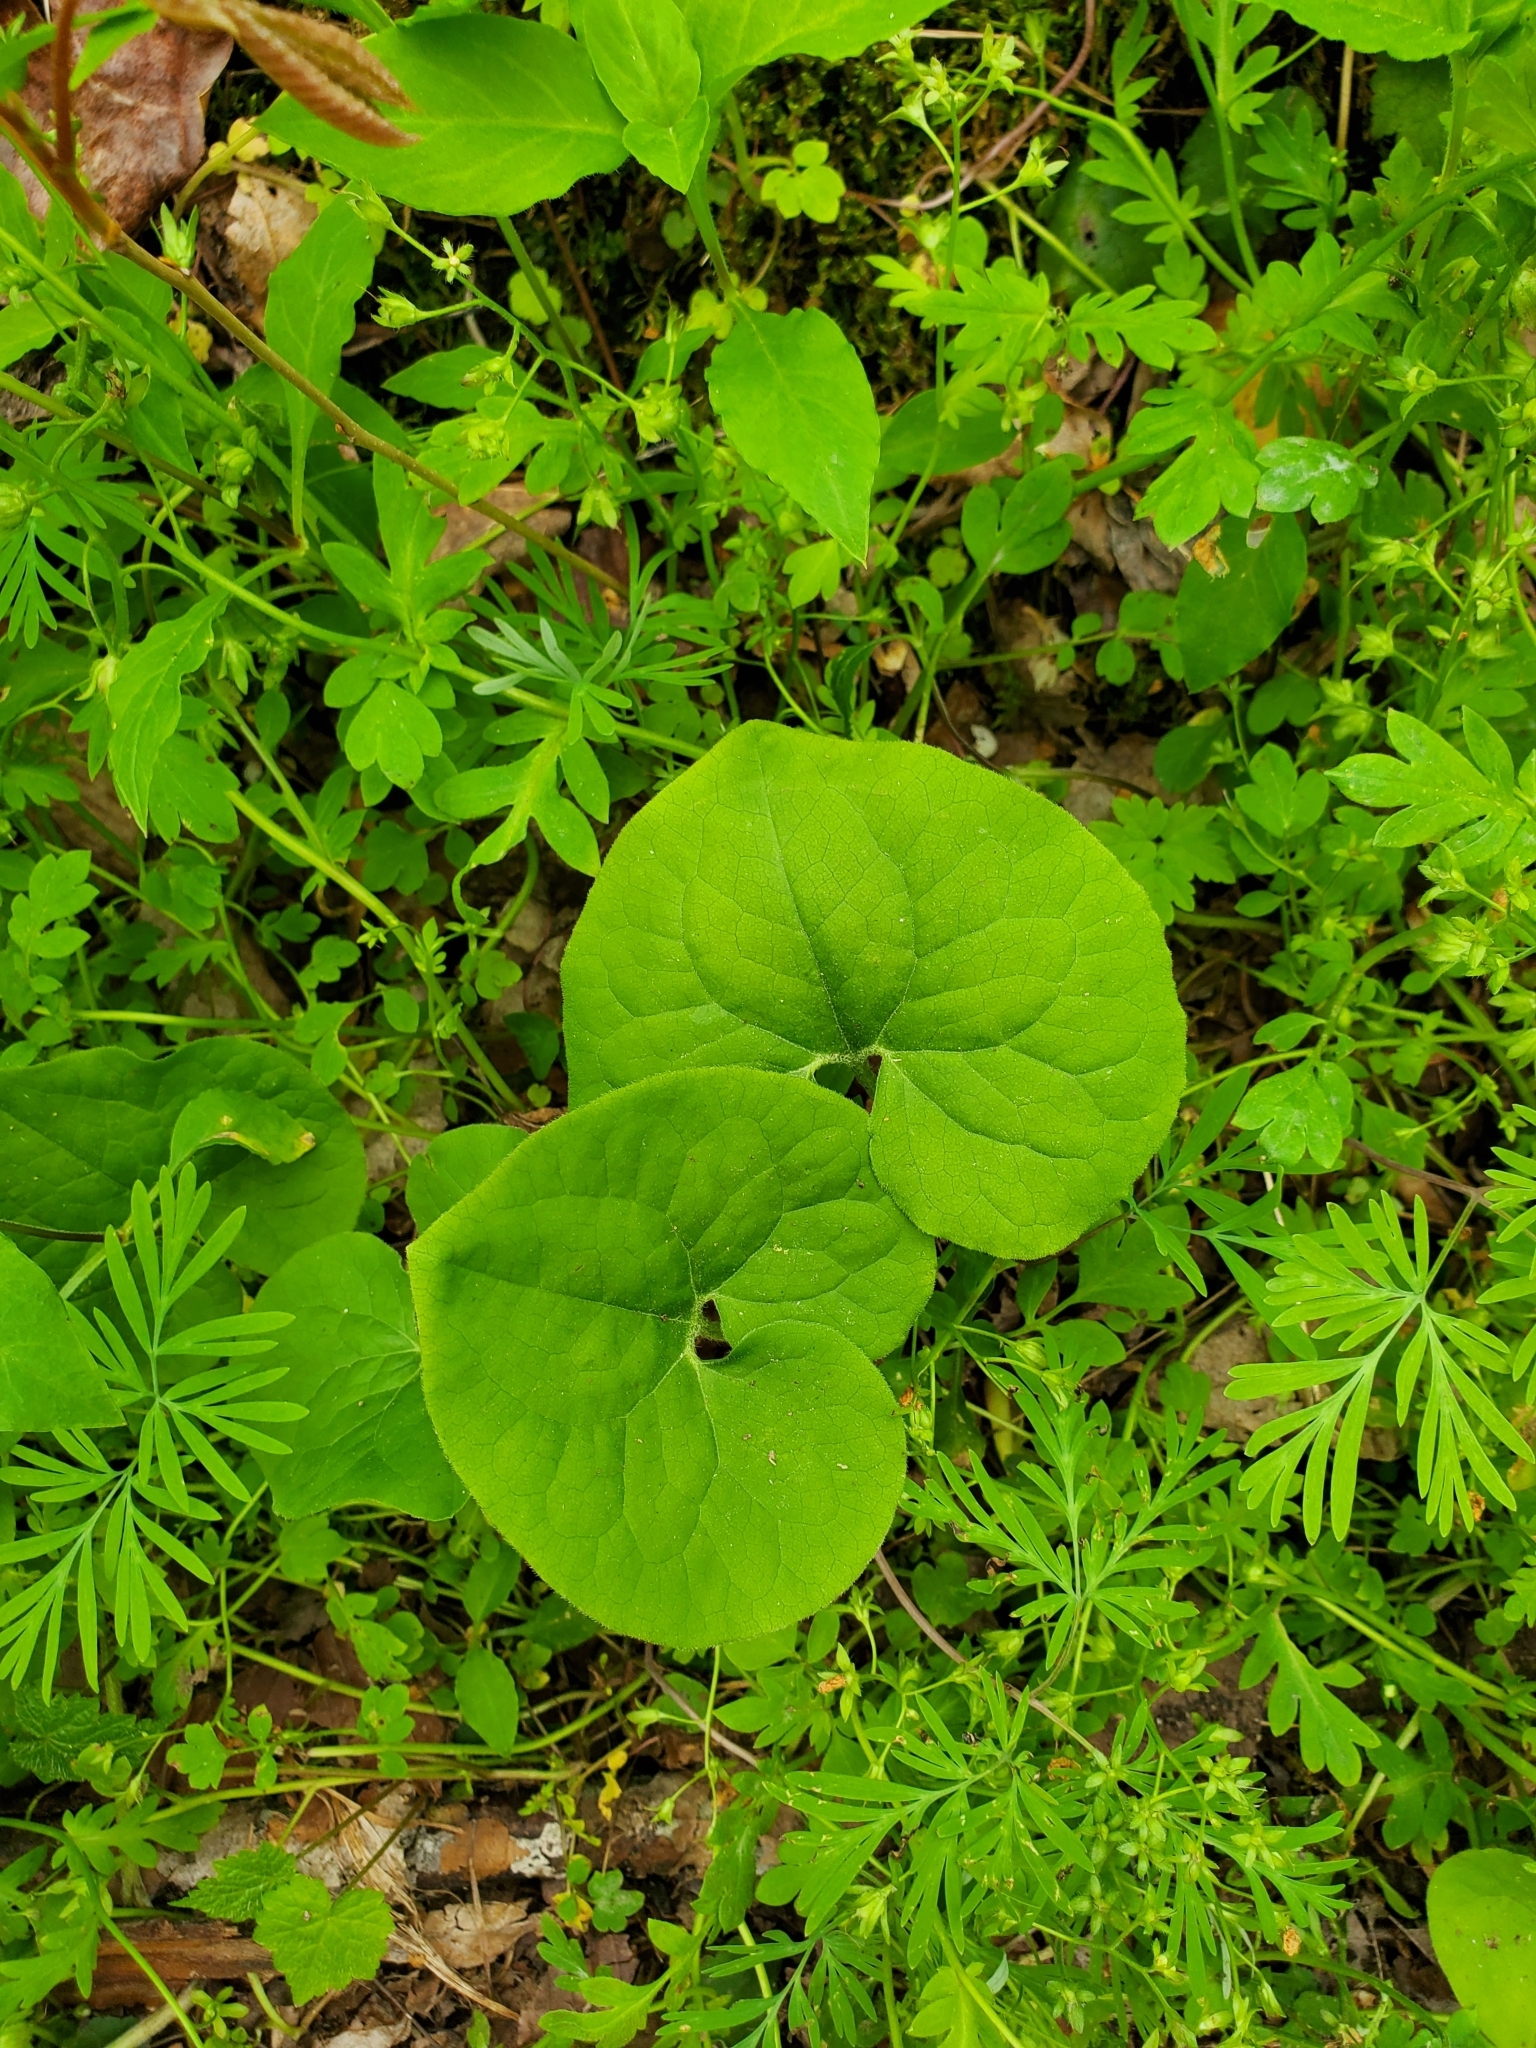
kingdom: Plantae
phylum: Tracheophyta
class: Magnoliopsida
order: Piperales
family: Aristolochiaceae
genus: Asarum
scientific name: Asarum canadense
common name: Wild ginger
